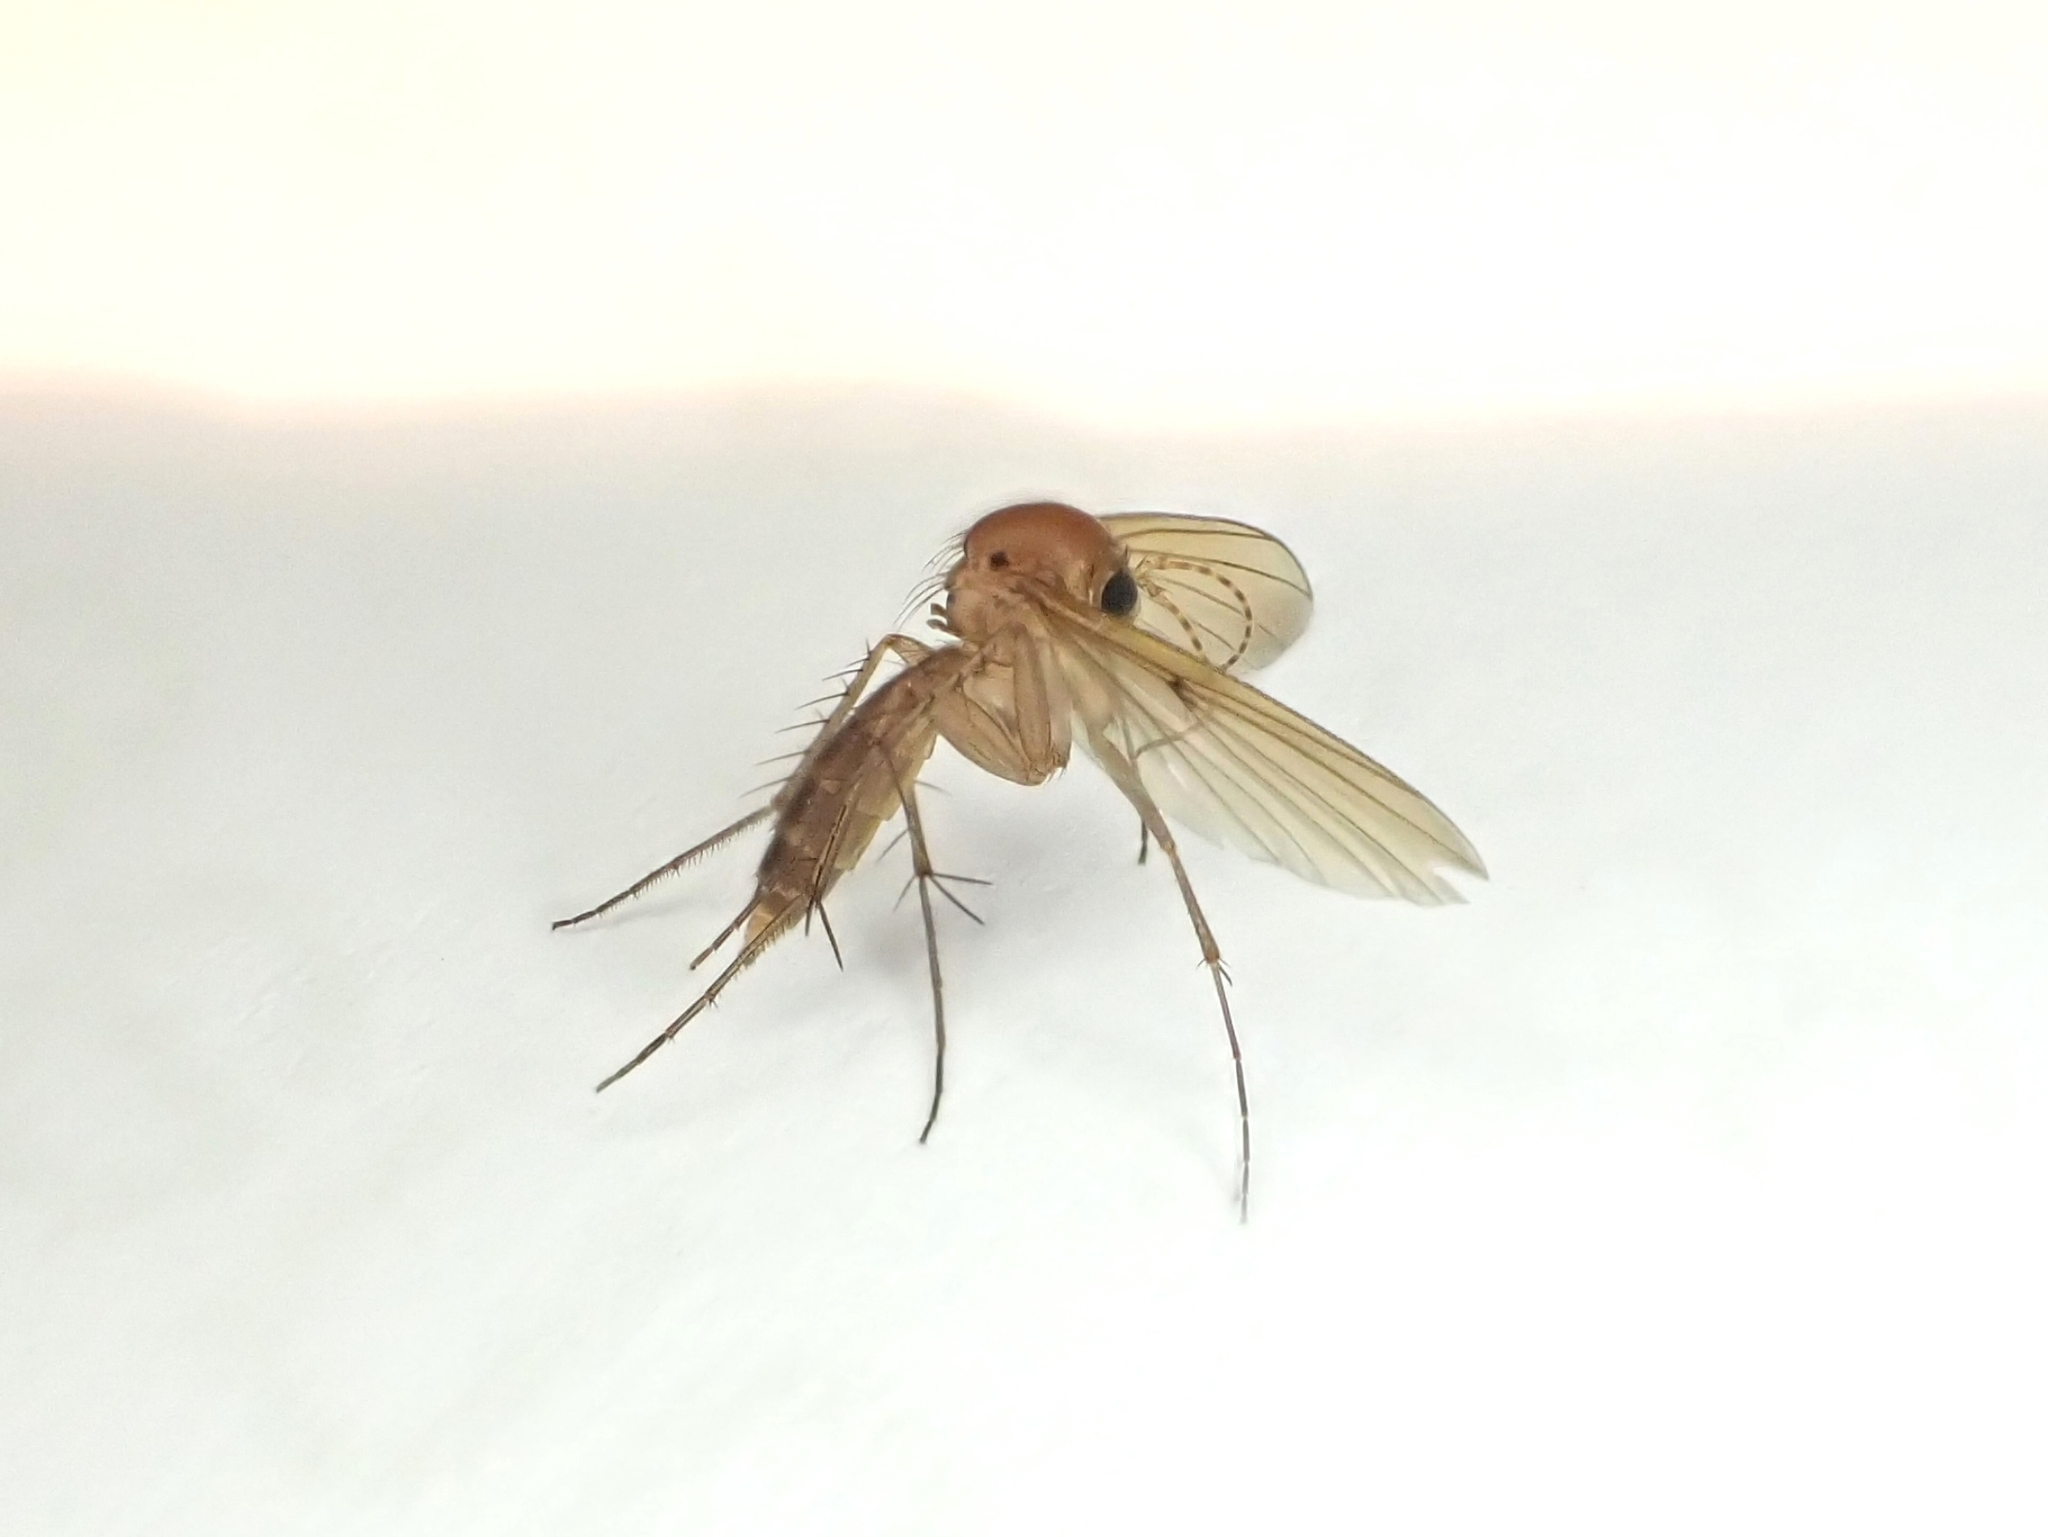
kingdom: Animalia
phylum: Arthropoda
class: Insecta
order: Diptera
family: Mycetophilidae
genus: Mycetophila
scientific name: Mycetophila fagi
